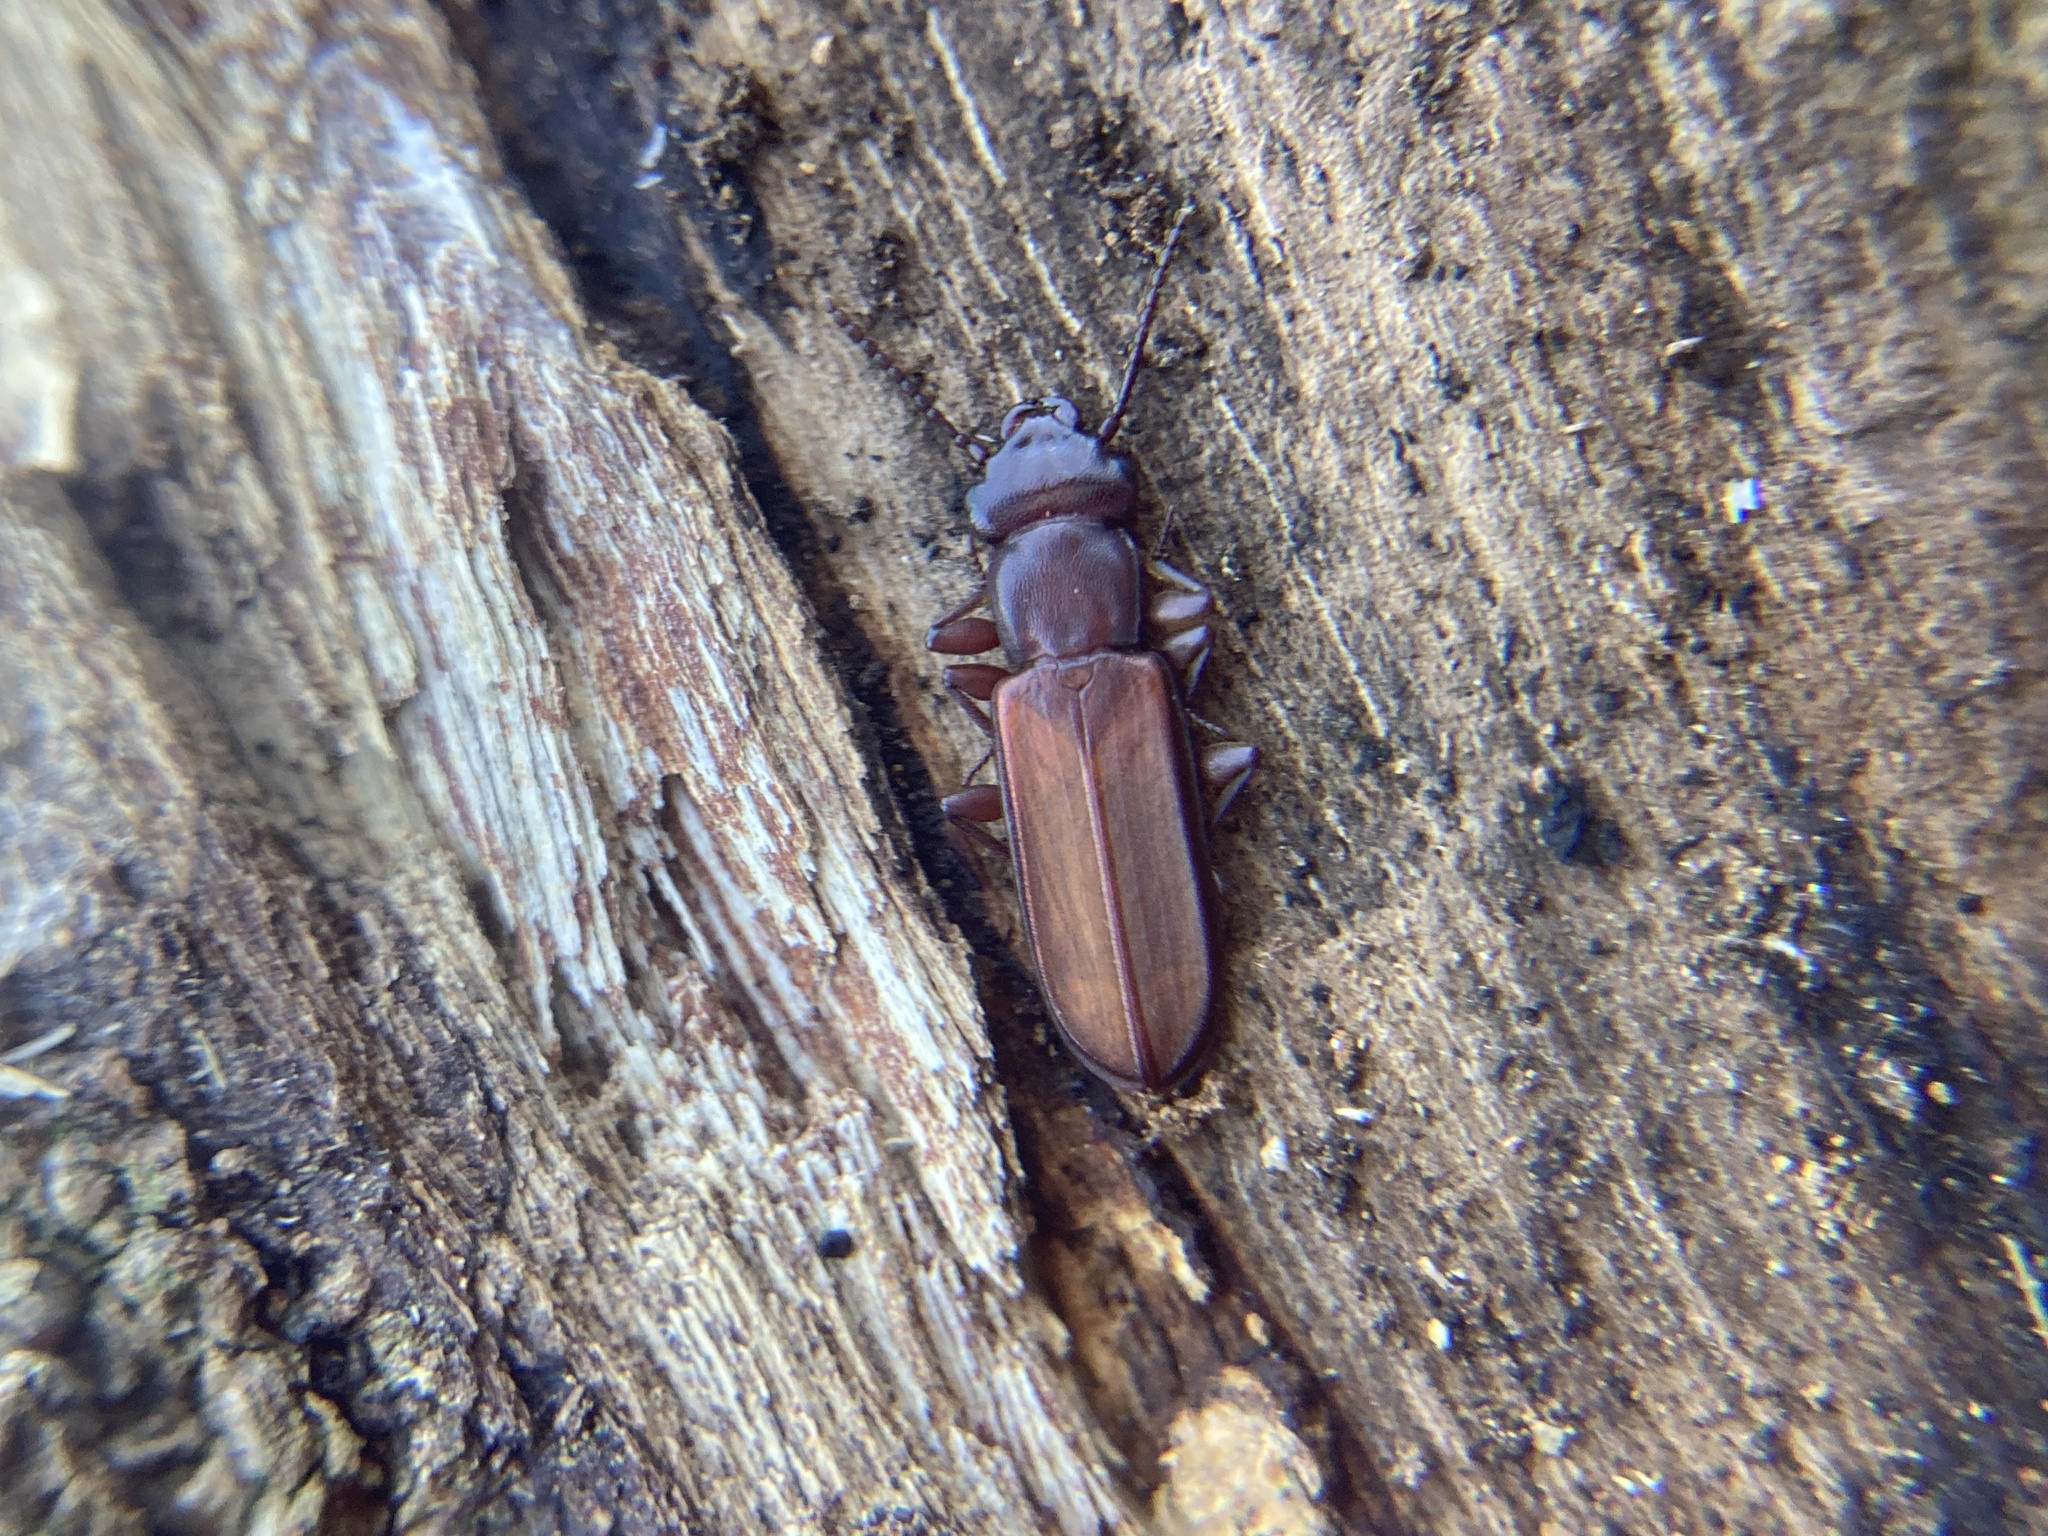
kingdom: Animalia
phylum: Arthropoda
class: Insecta
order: Coleoptera
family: Cucujidae
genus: Platisus
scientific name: Platisus
